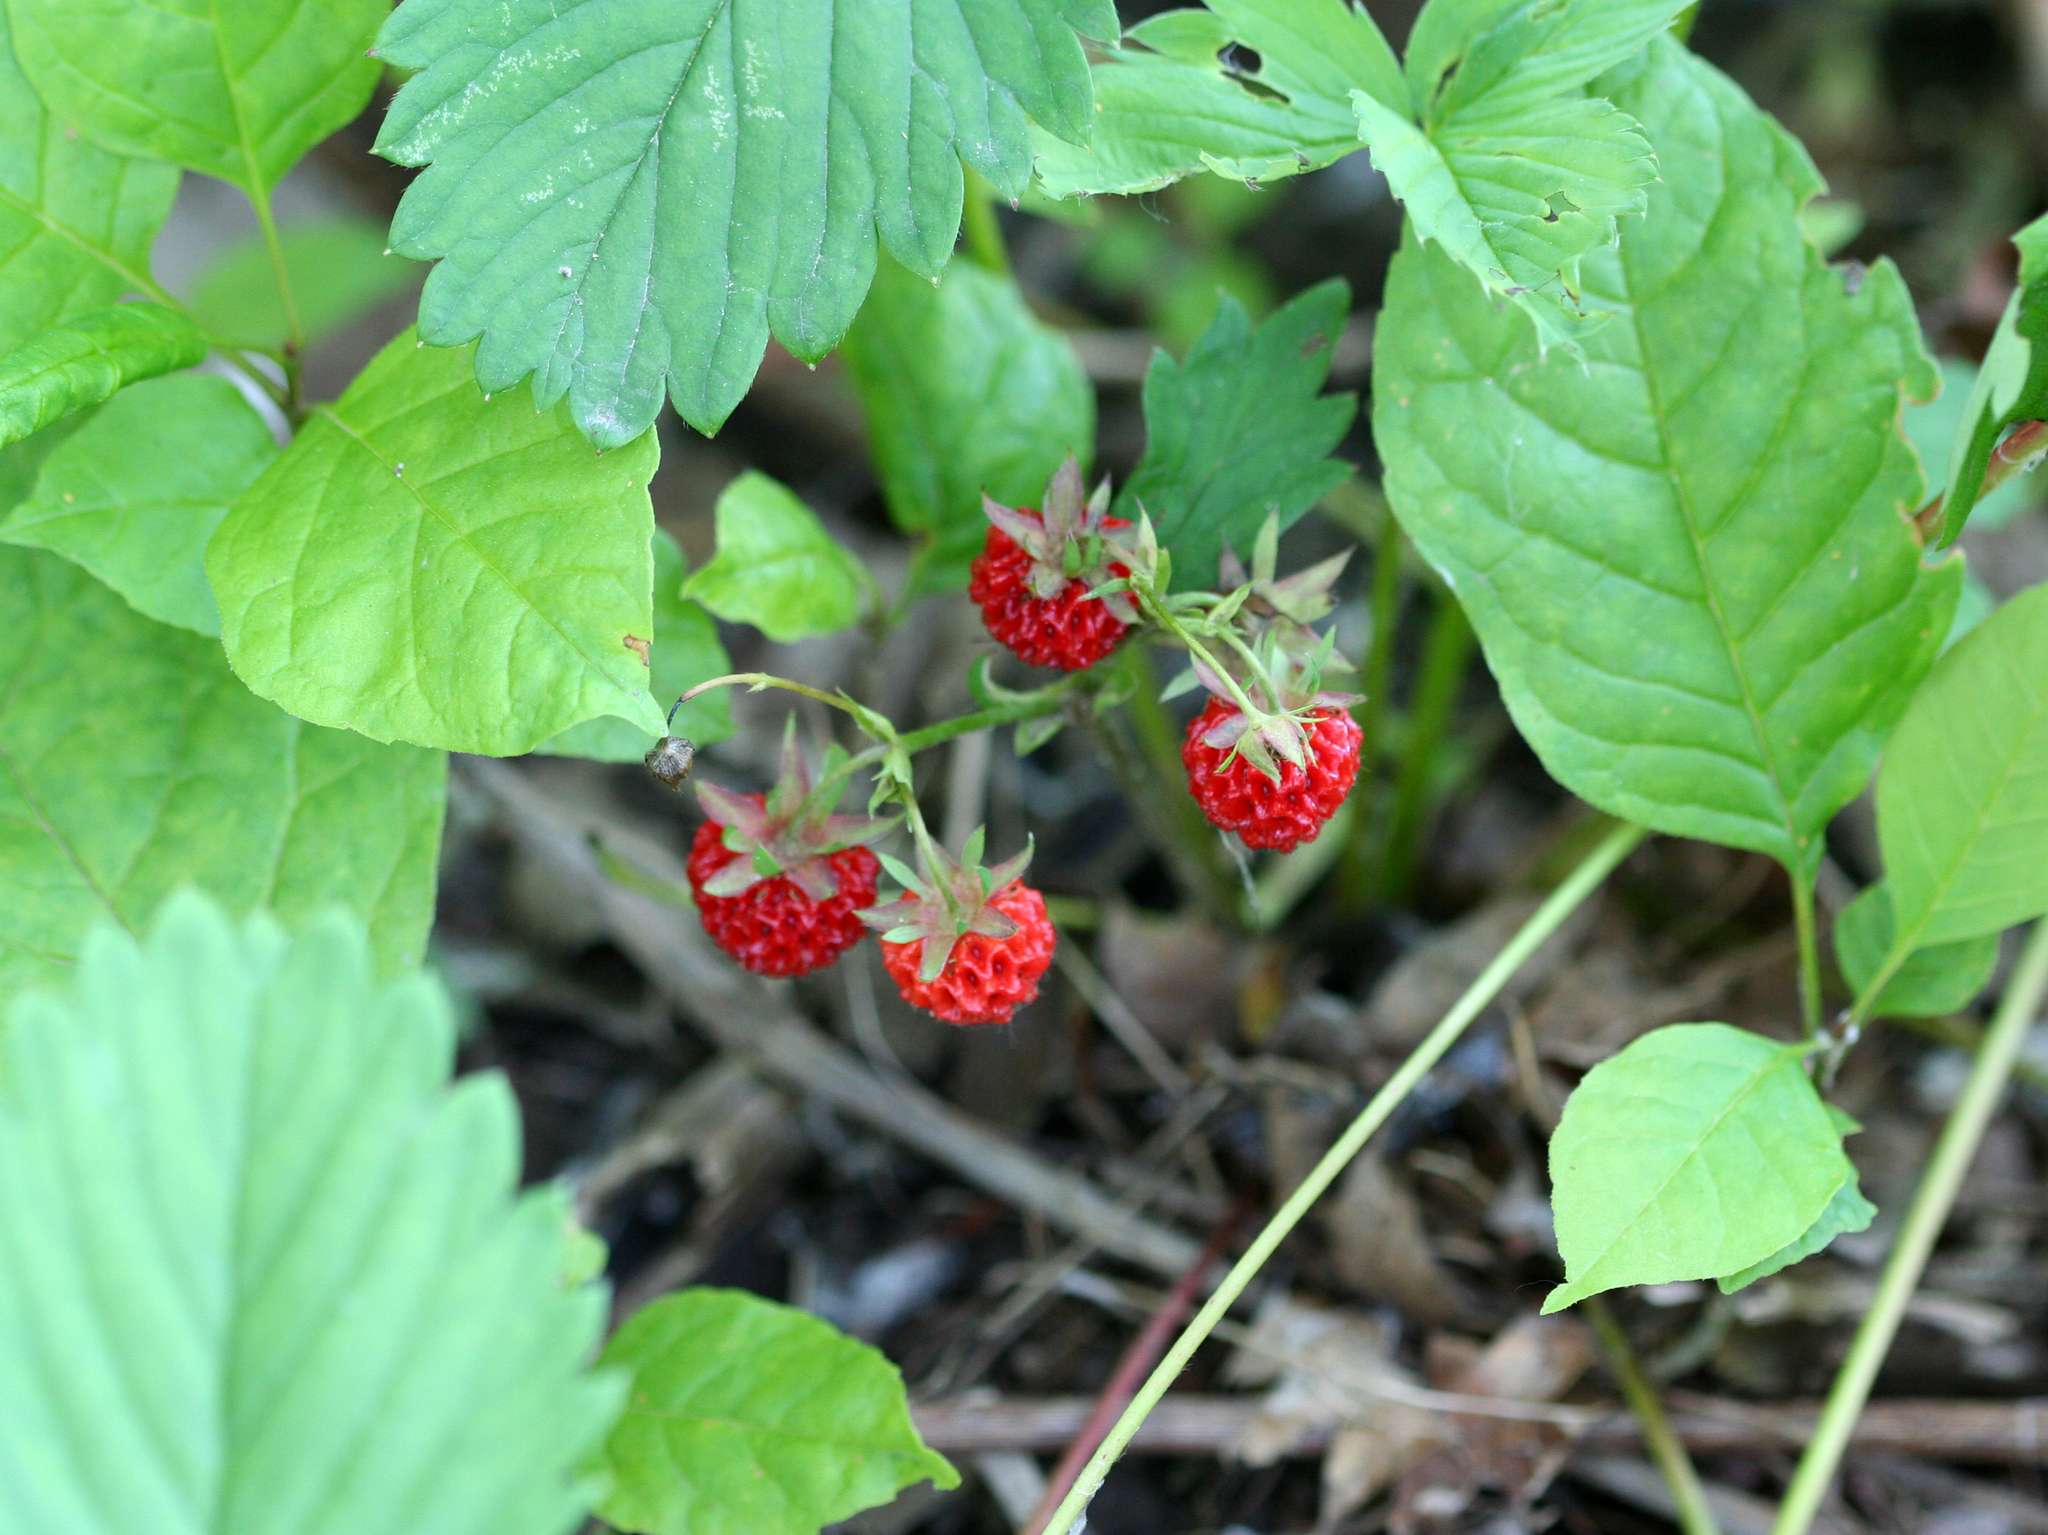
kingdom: Plantae
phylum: Tracheophyta
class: Magnoliopsida
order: Rosales
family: Rosaceae
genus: Fragaria
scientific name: Fragaria virginiana
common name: Thickleaved wild strawberry
